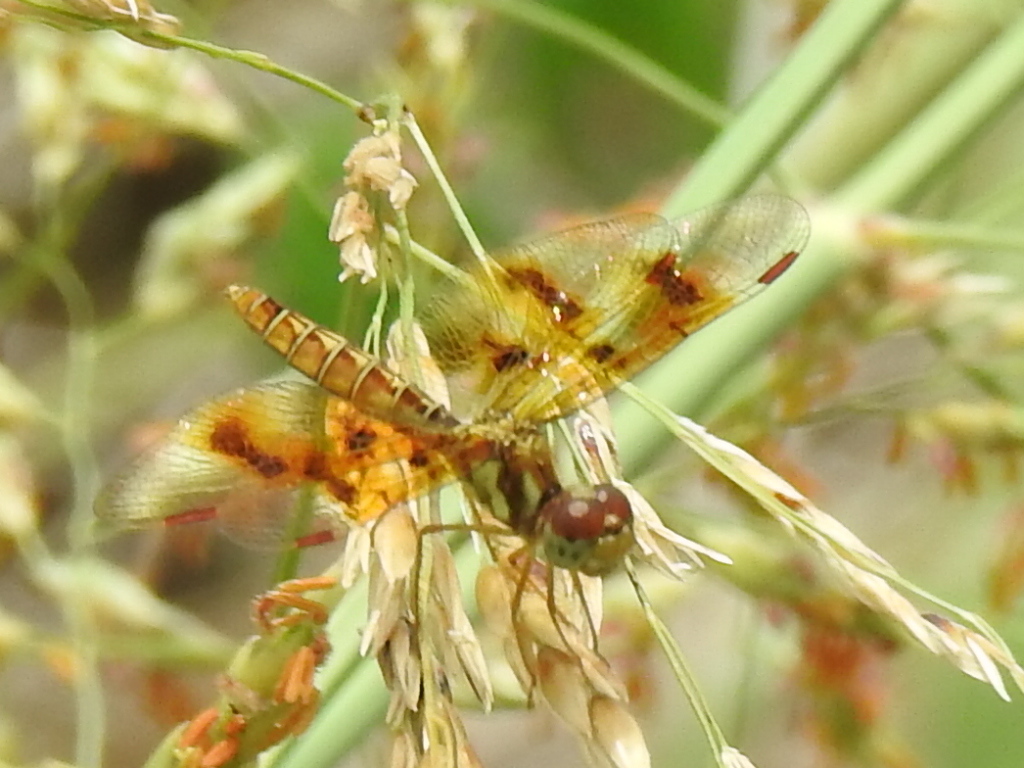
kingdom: Animalia
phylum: Arthropoda
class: Insecta
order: Odonata
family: Libellulidae
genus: Perithemis
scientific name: Perithemis tenera
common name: Eastern amberwing
